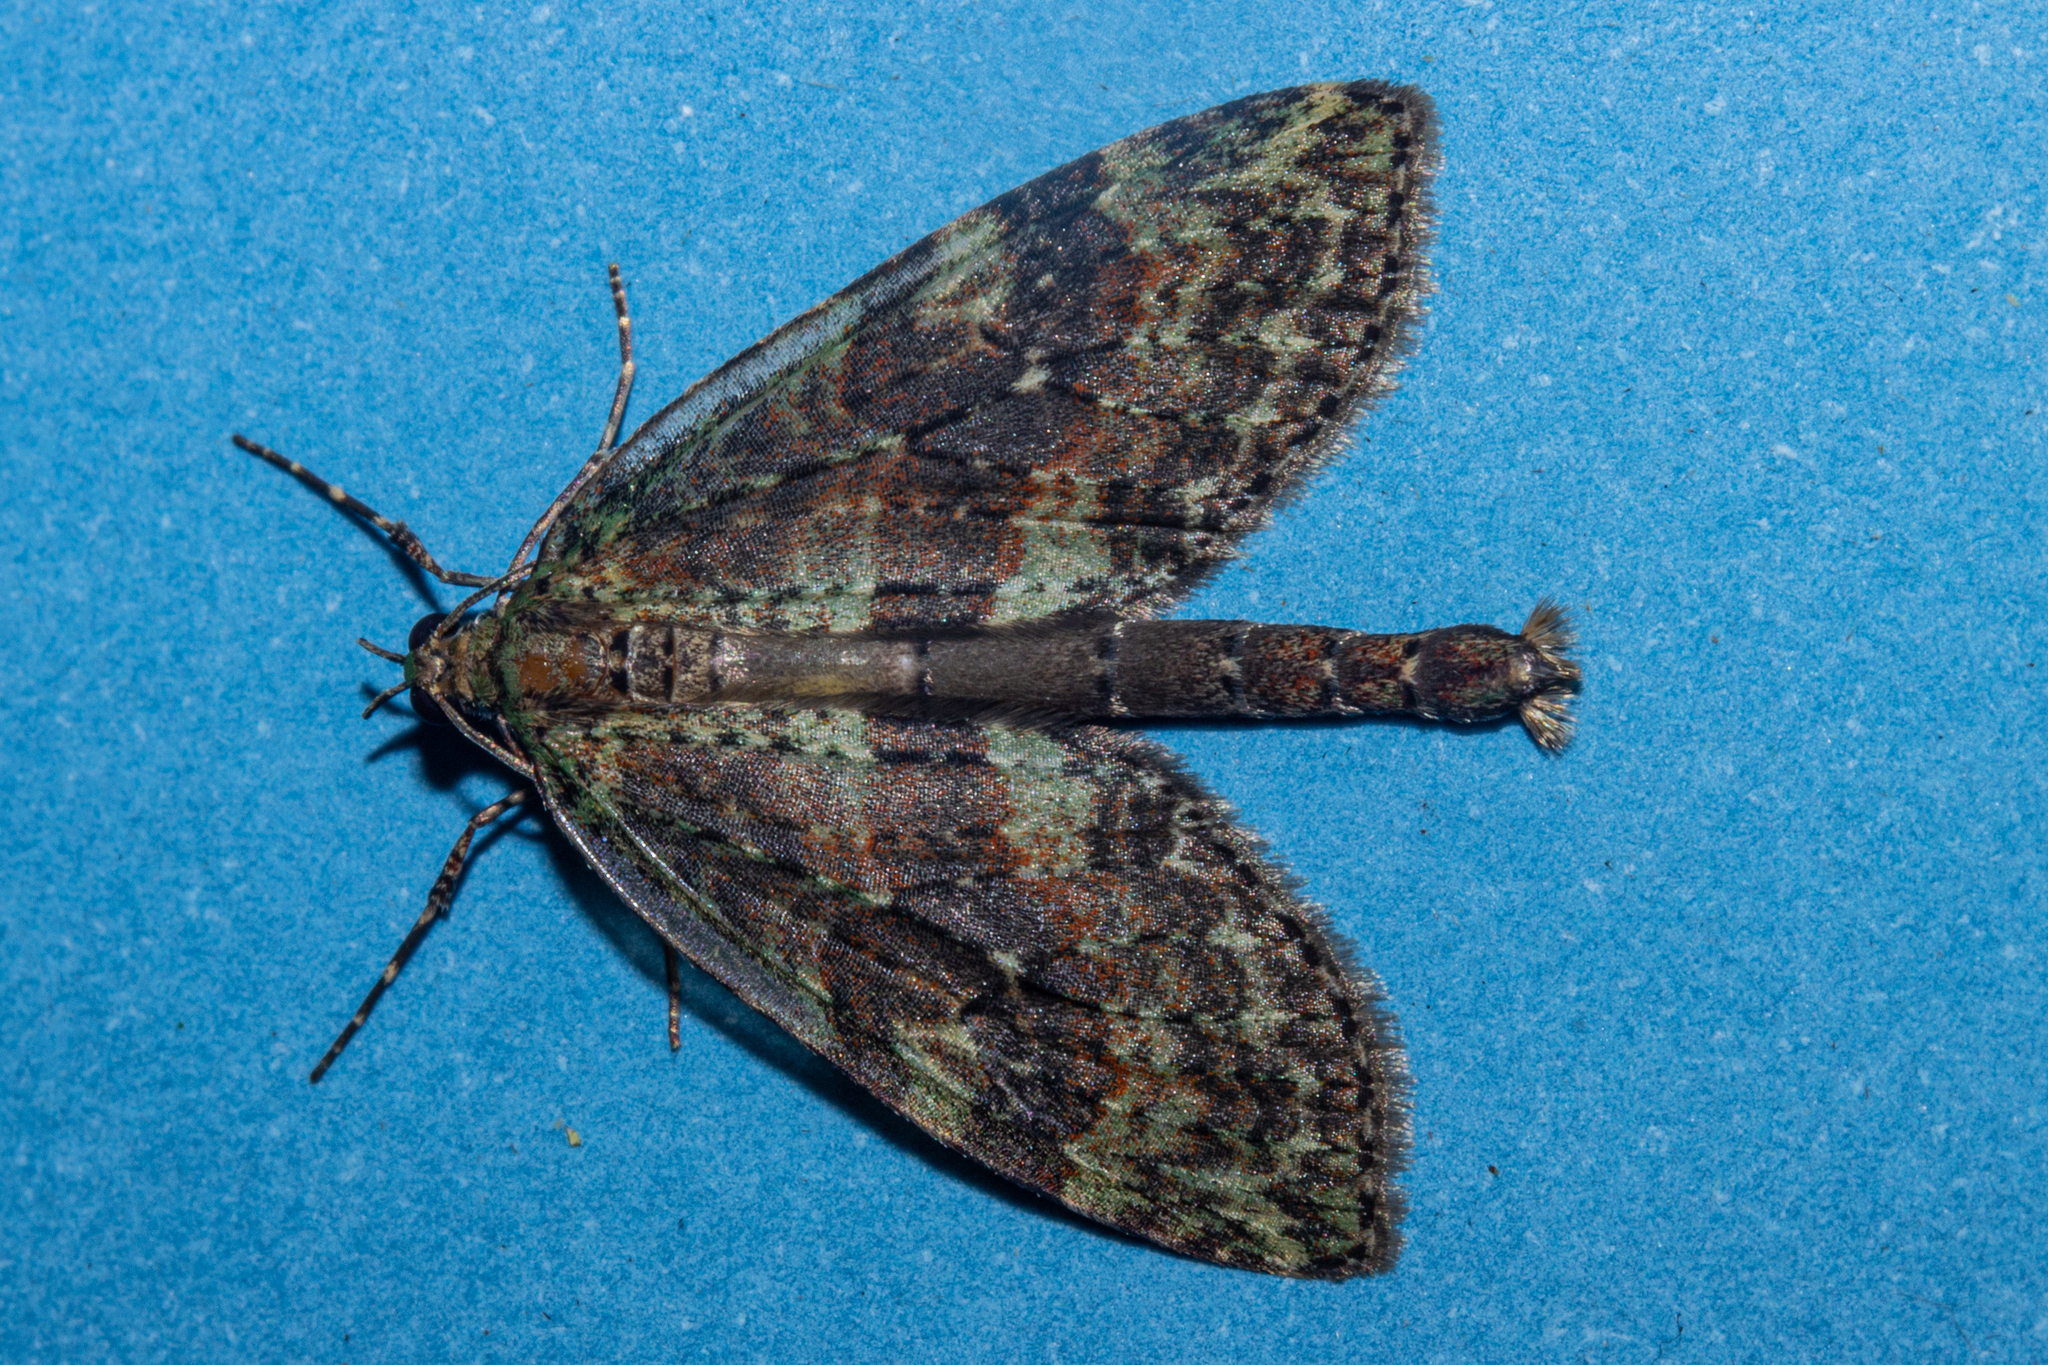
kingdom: Animalia
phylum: Arthropoda
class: Insecta
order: Lepidoptera
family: Geometridae
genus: Tatosoma
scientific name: Tatosoma transitaria
